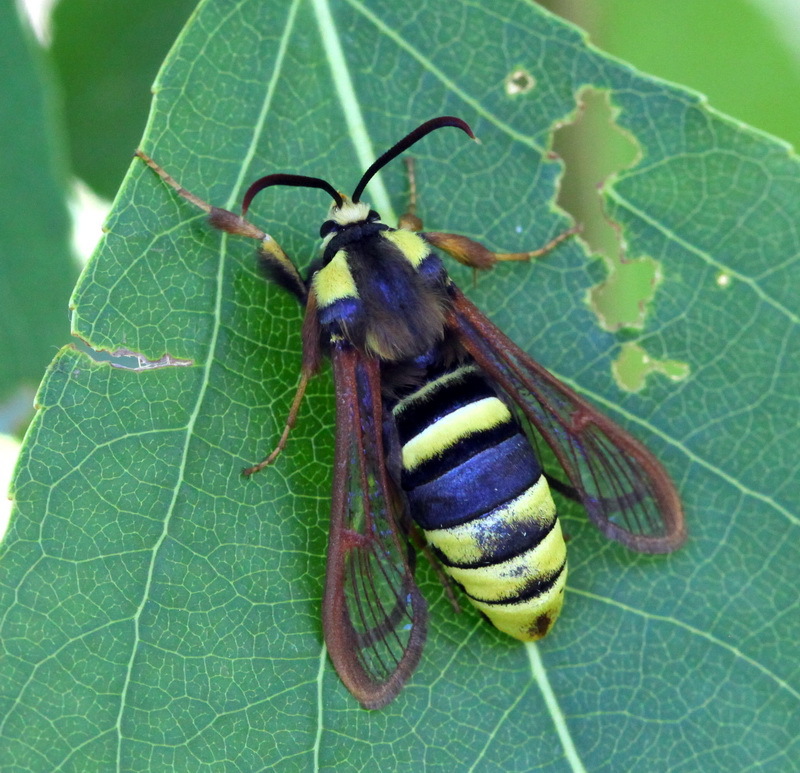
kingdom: Animalia
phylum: Arthropoda
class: Insecta
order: Lepidoptera
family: Sesiidae
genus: Sesia
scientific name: Sesia apiformis
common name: Hornet moth
